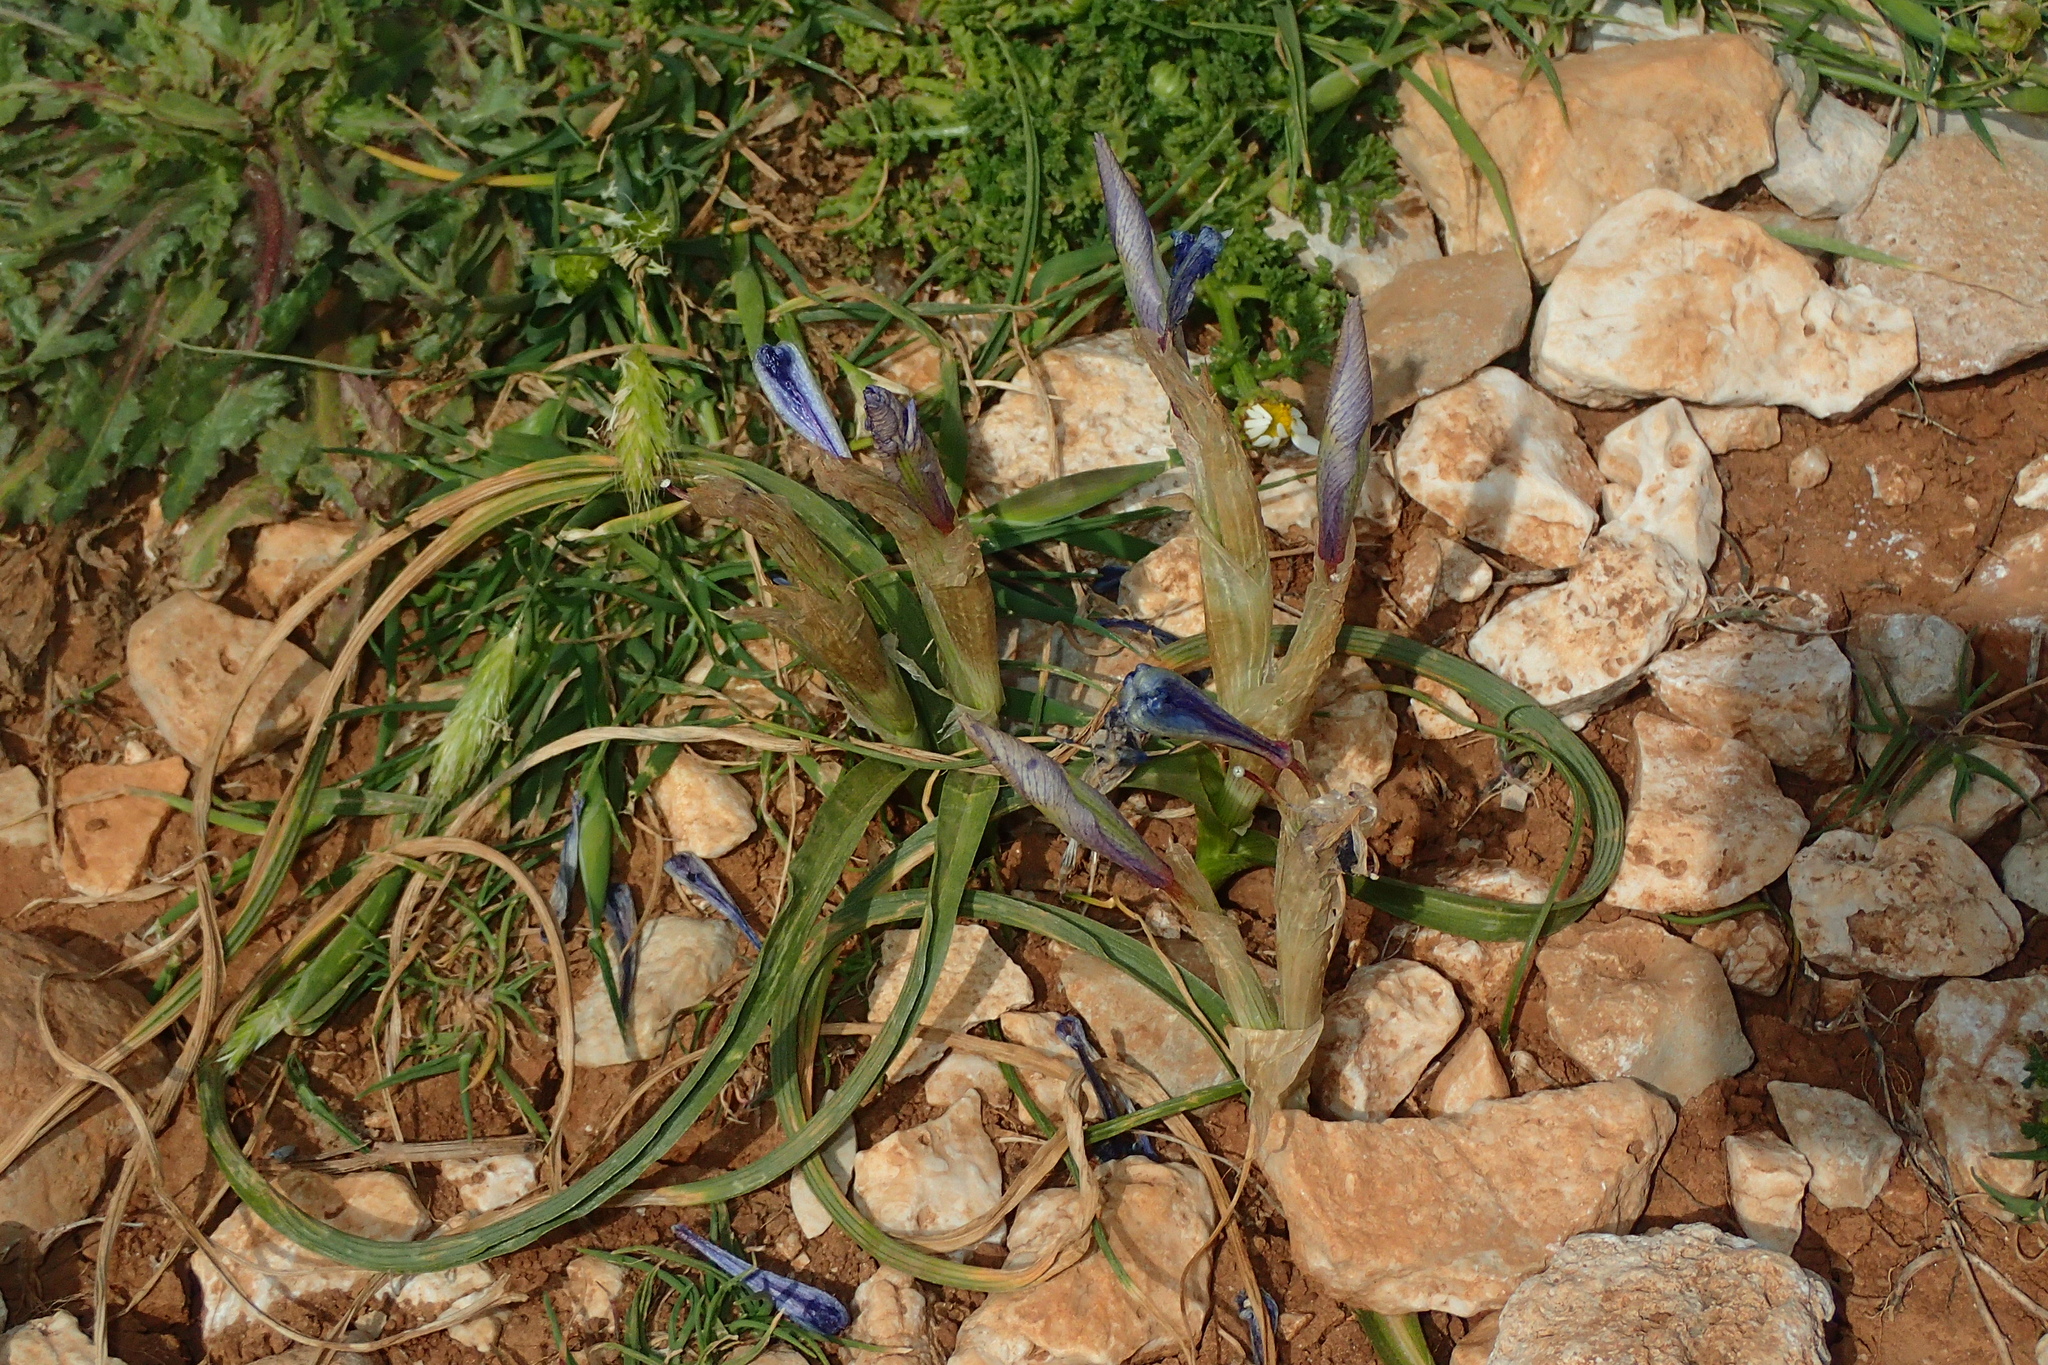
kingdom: Plantae
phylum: Tracheophyta
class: Liliopsida
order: Asparagales
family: Iridaceae
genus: Moraea
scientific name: Moraea sisyrinchium
